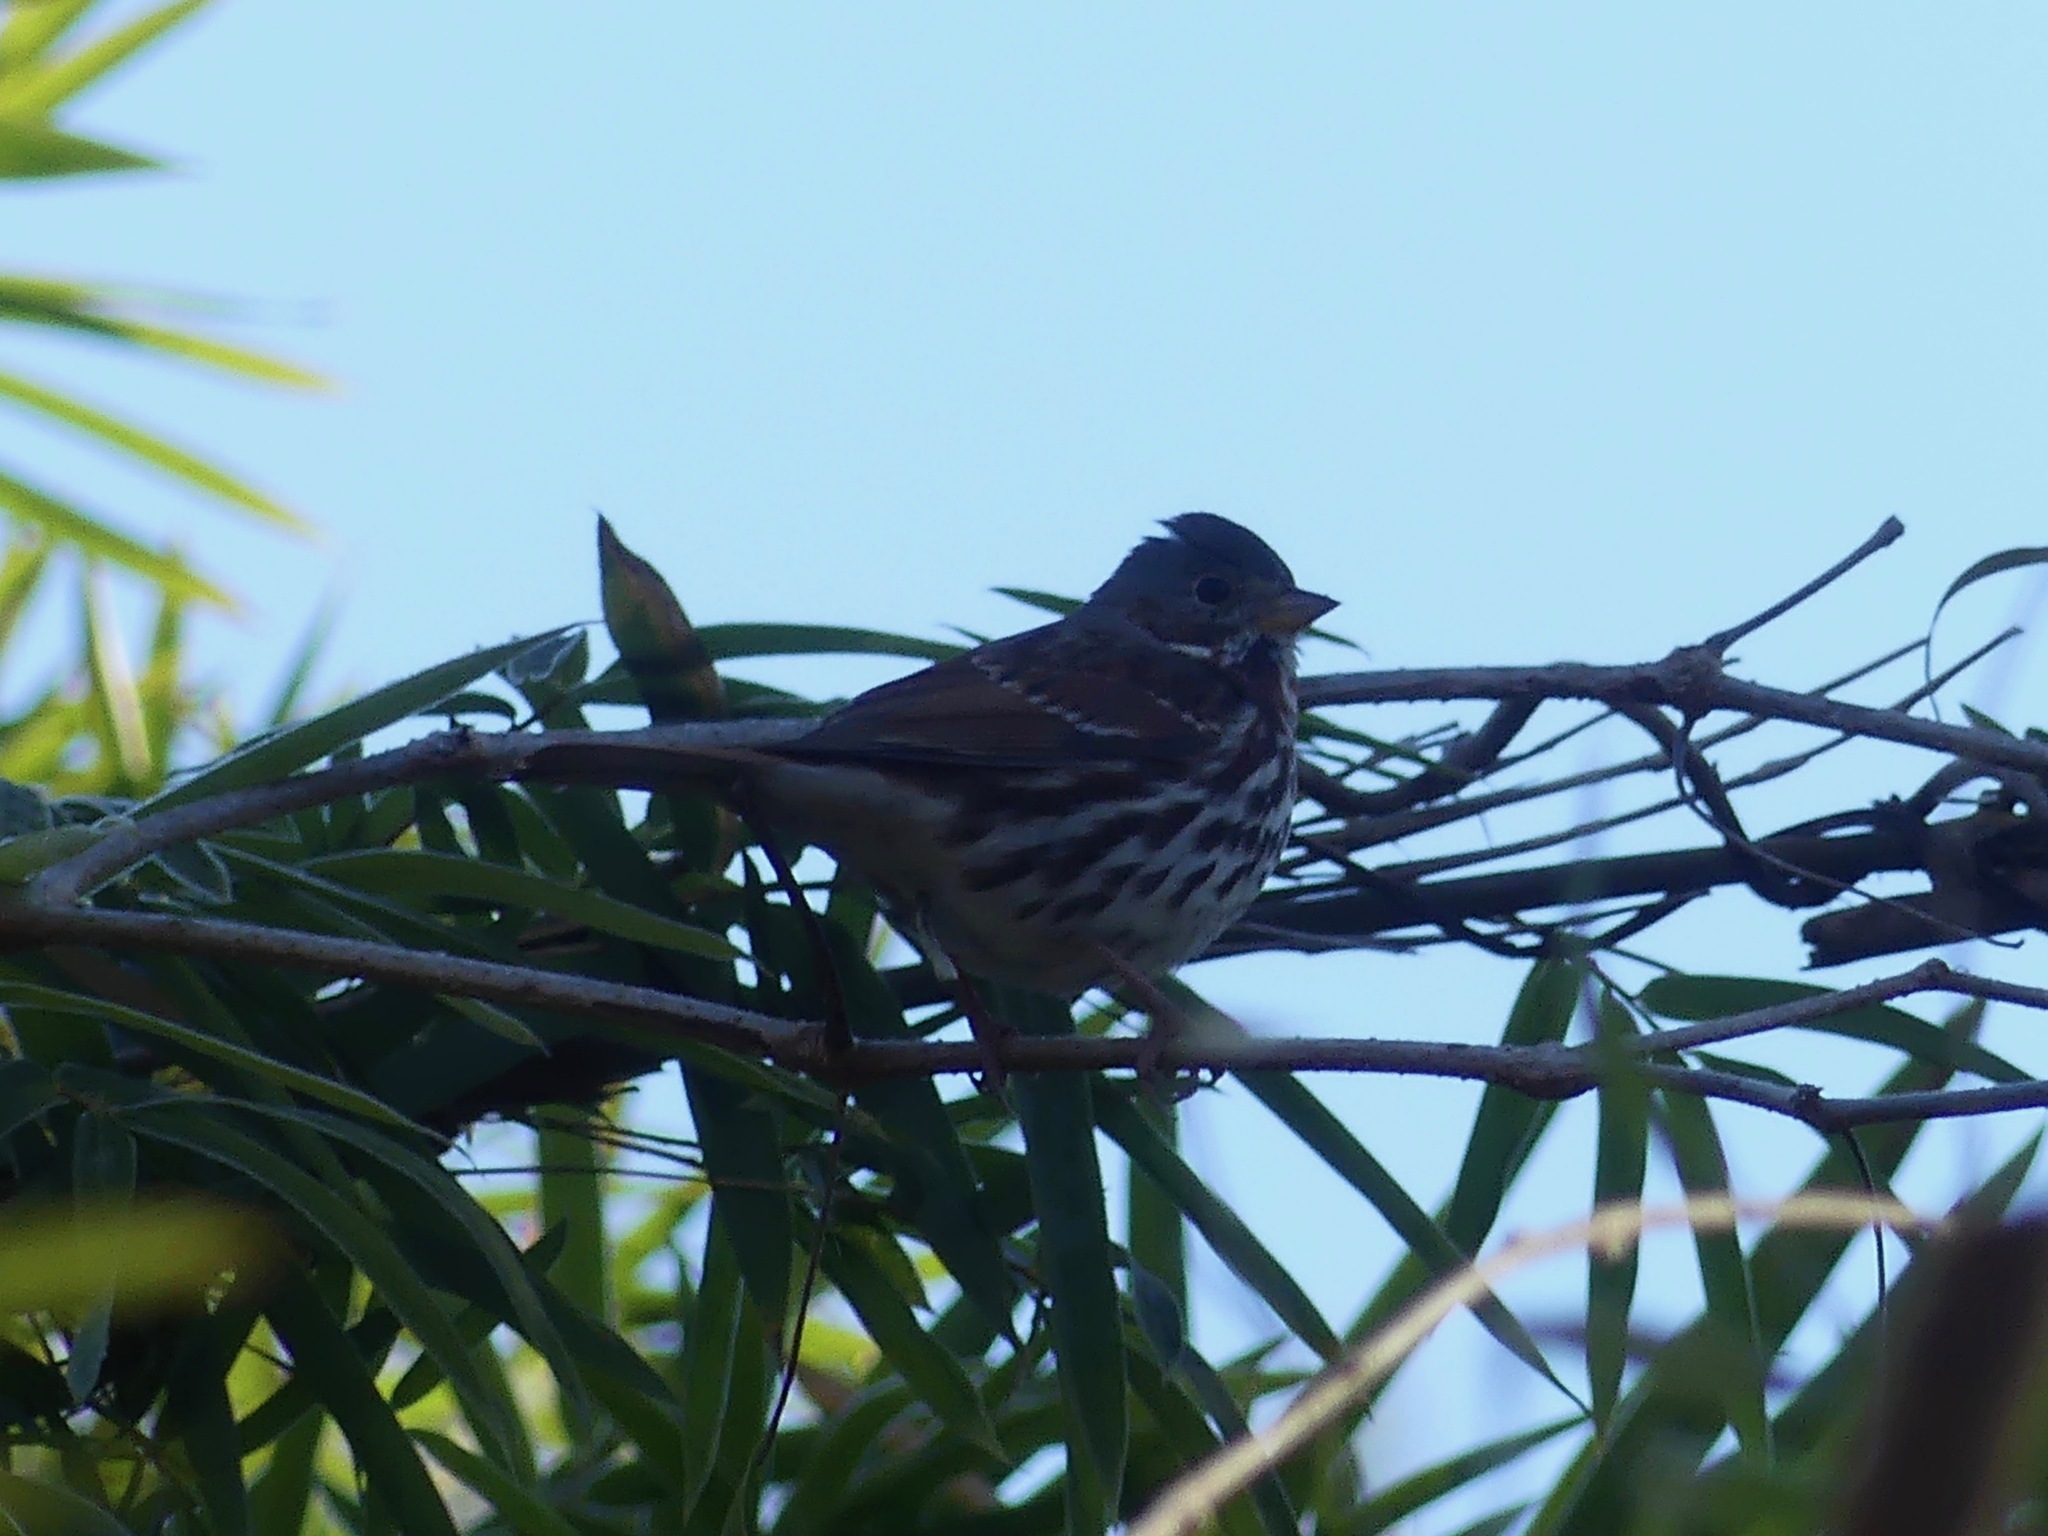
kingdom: Animalia
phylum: Chordata
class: Aves
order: Passeriformes
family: Passerellidae
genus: Passerella
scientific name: Passerella iliaca
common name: Fox sparrow
